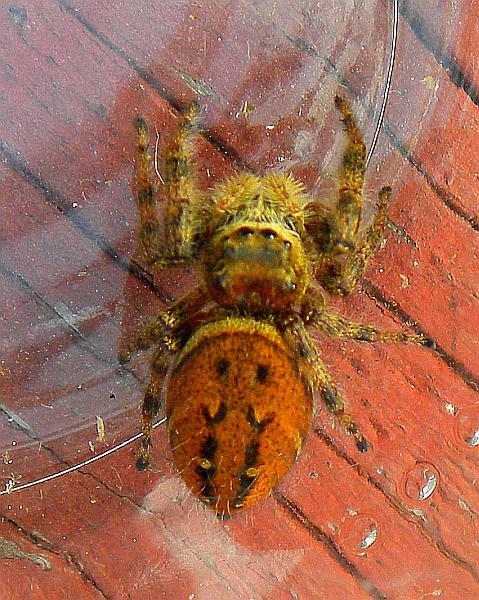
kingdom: Animalia
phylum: Arthropoda
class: Arachnida
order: Araneae
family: Salticidae
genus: Phidippus
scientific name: Phidippus clarus
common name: Brilliant jumping spider
